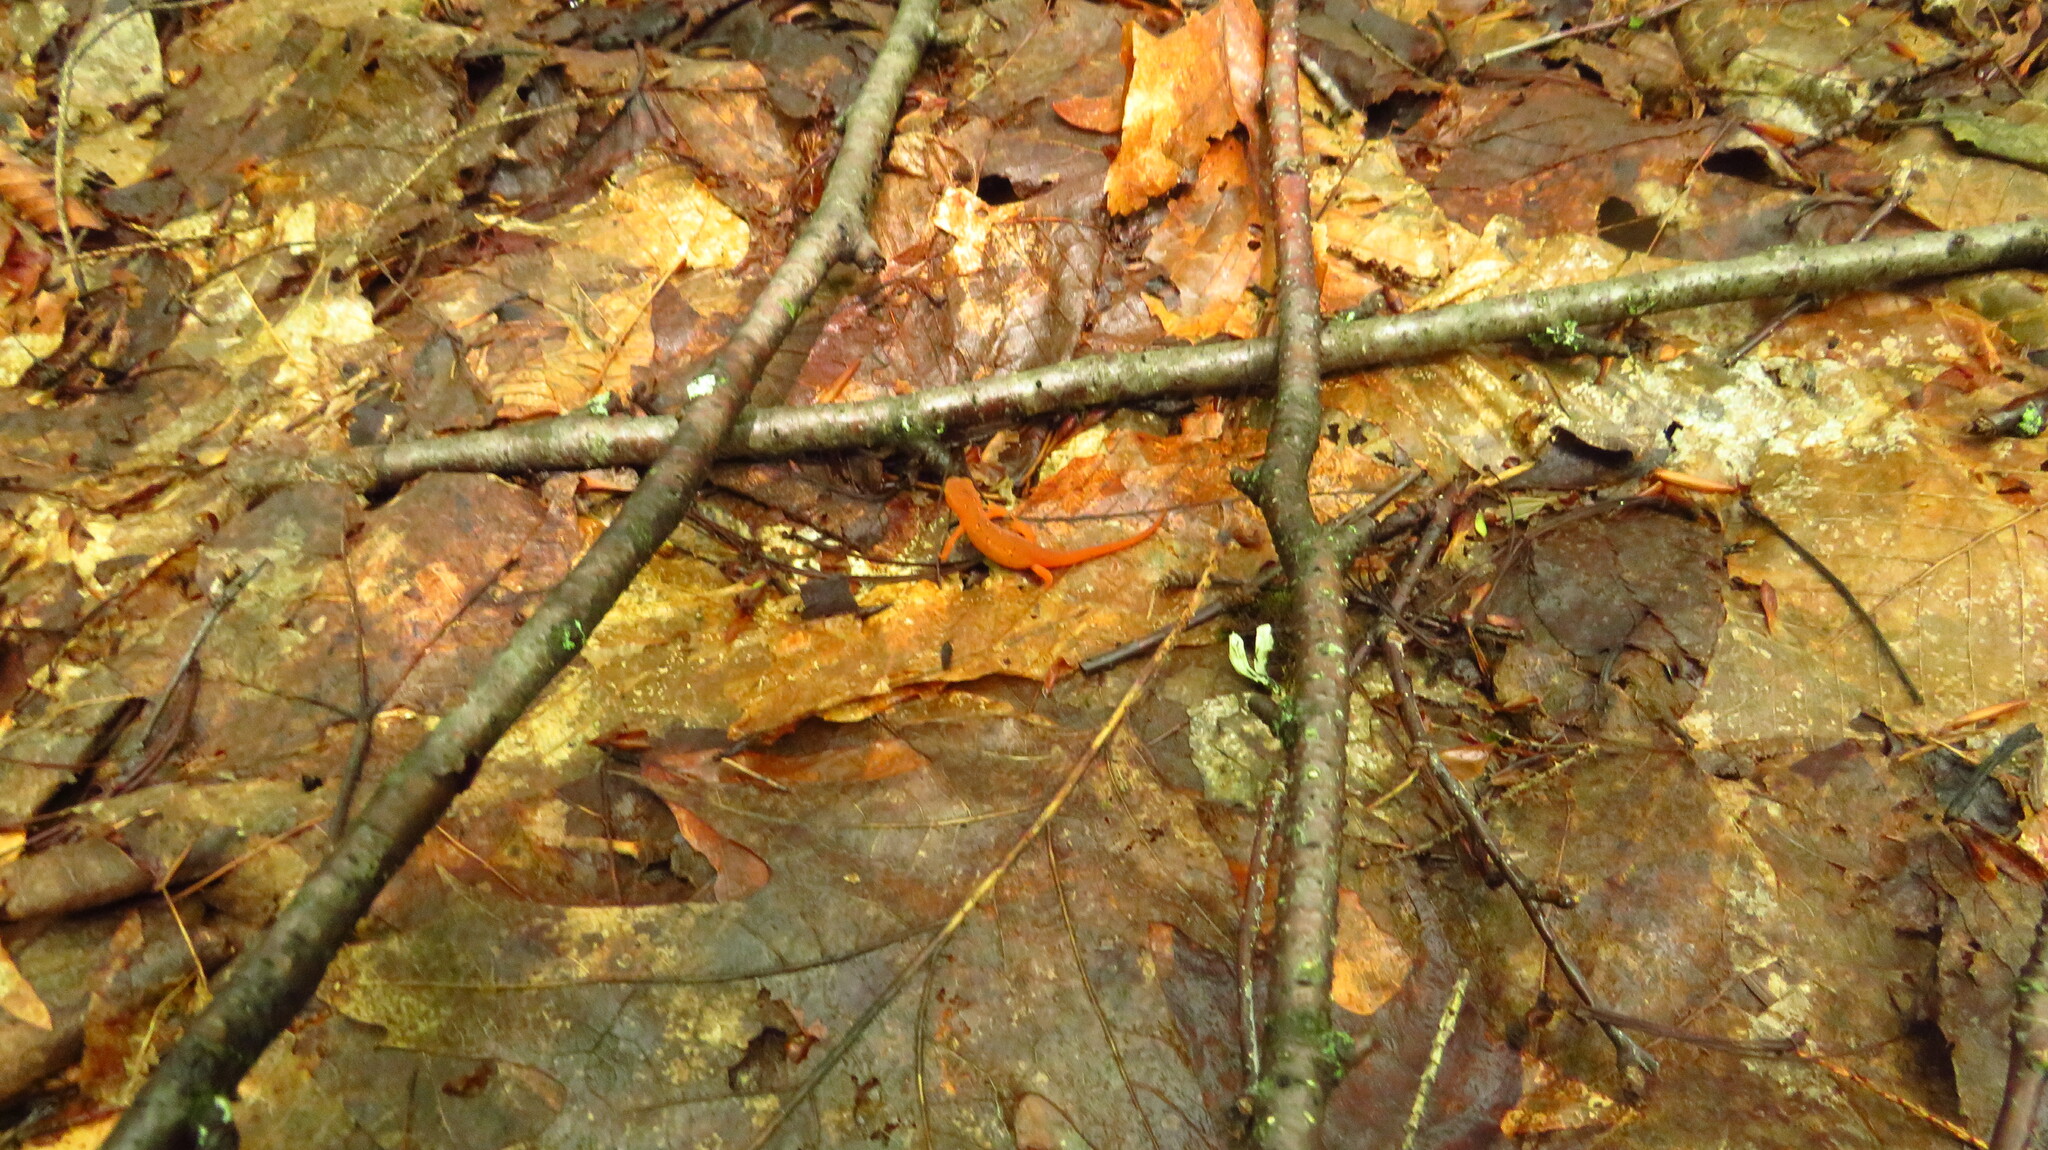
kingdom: Animalia
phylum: Chordata
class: Amphibia
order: Caudata
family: Salamandridae
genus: Notophthalmus
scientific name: Notophthalmus viridescens
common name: Eastern newt
